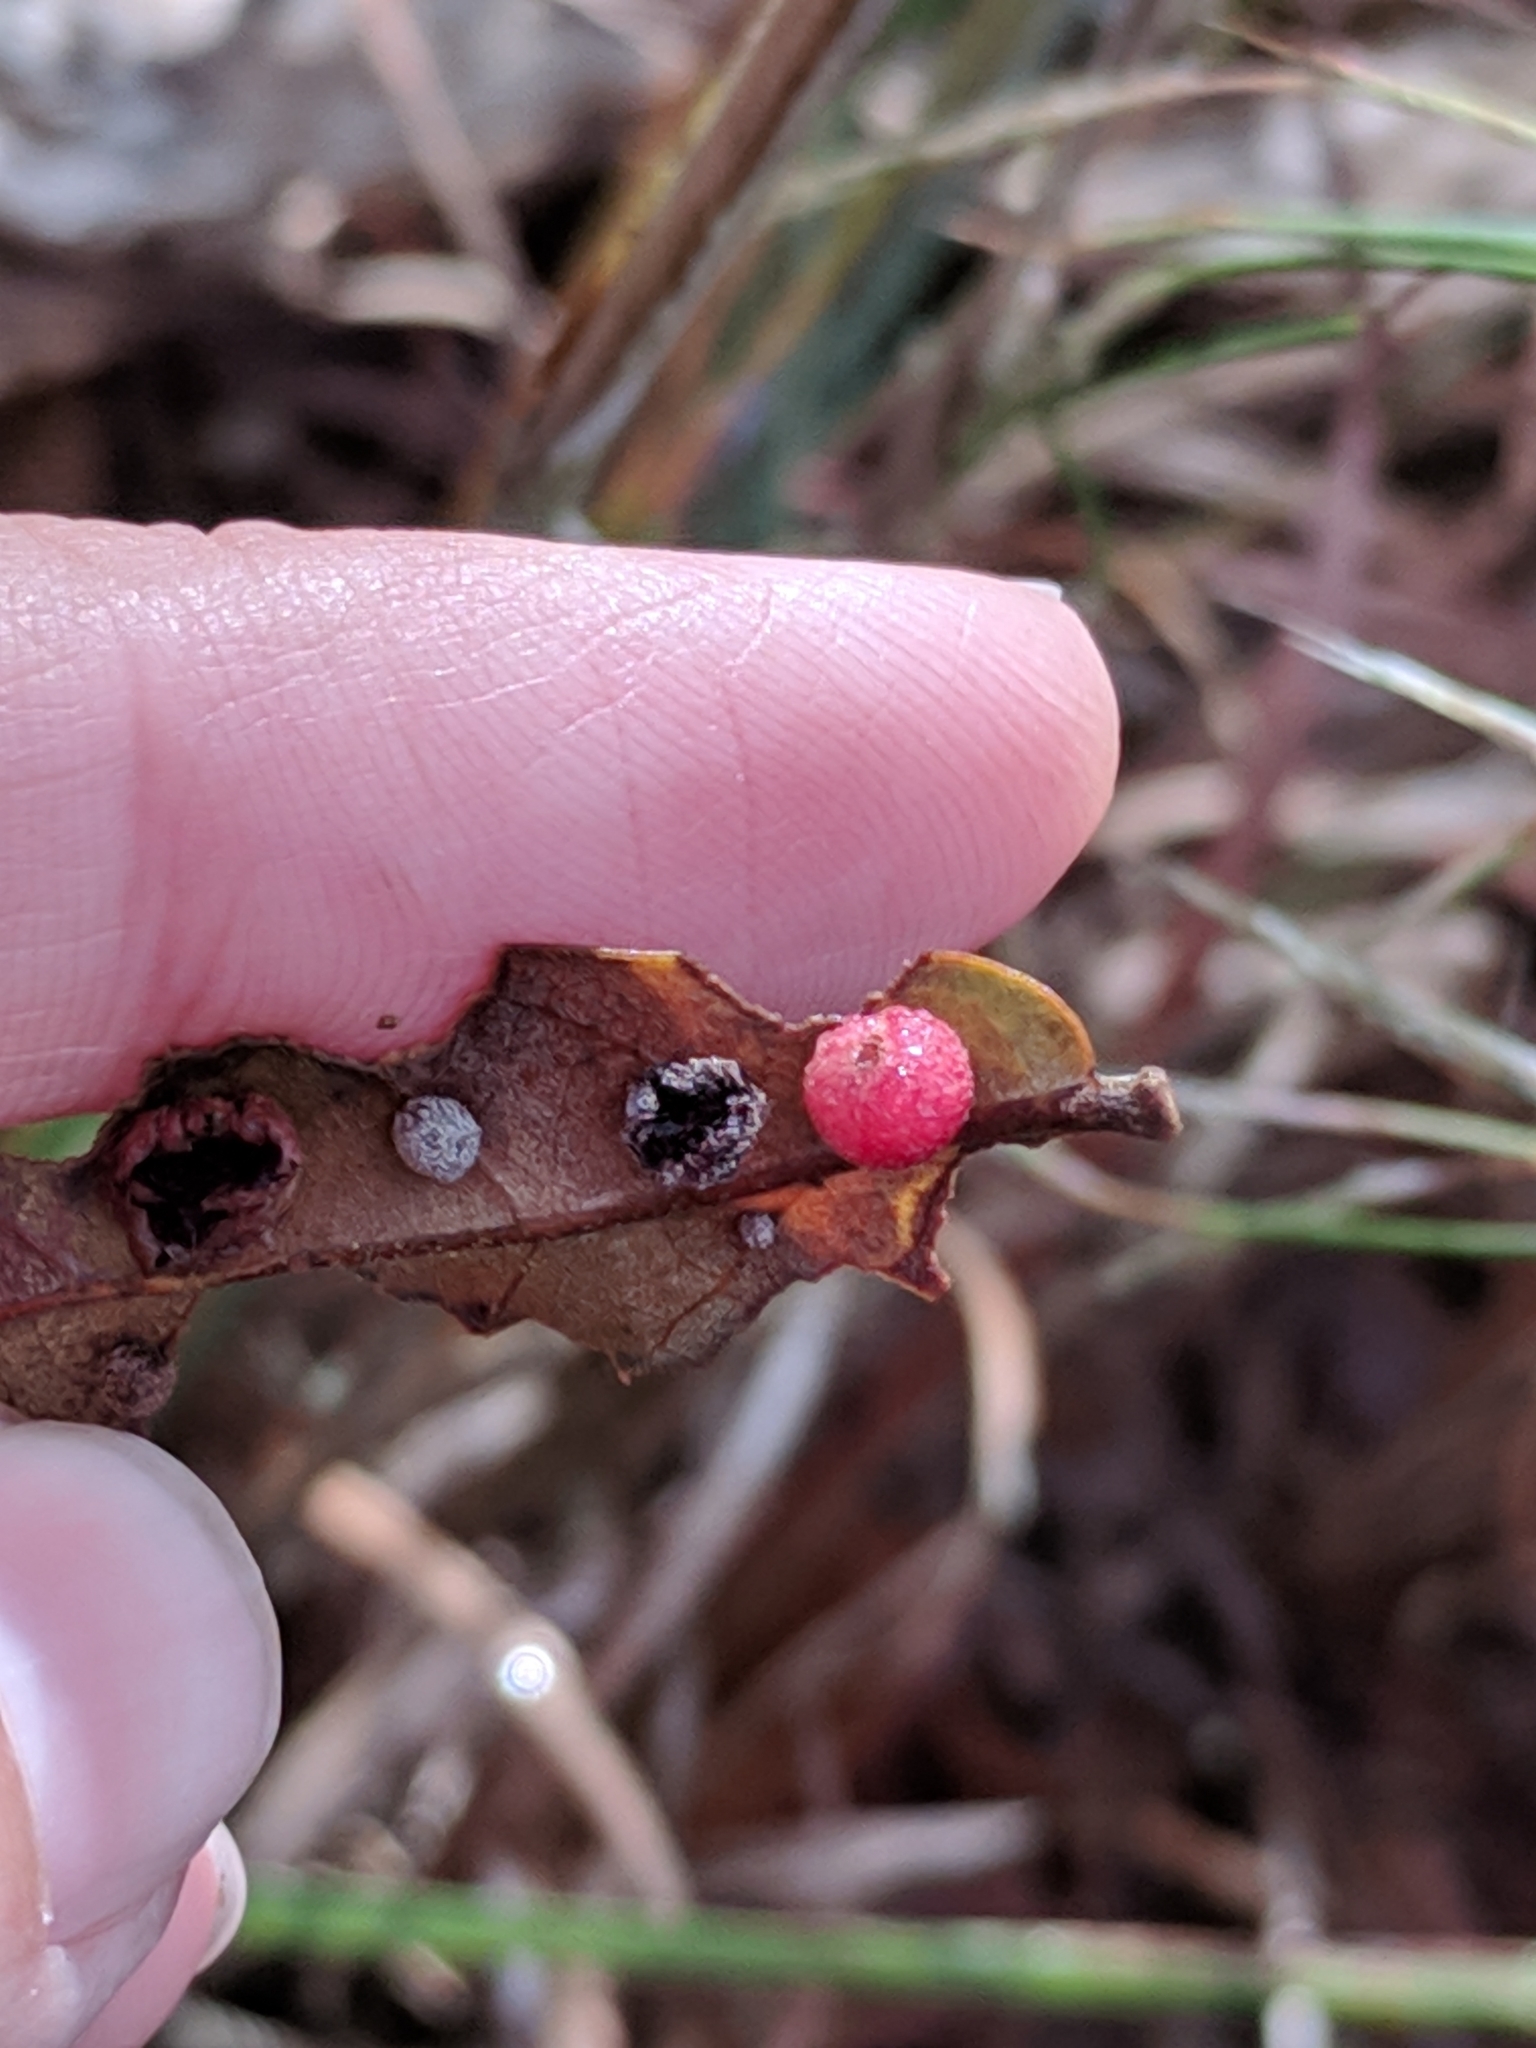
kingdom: Animalia
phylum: Arthropoda
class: Insecta
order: Hymenoptera
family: Cynipidae
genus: Belonocnema
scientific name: Belonocnema kinseyi
